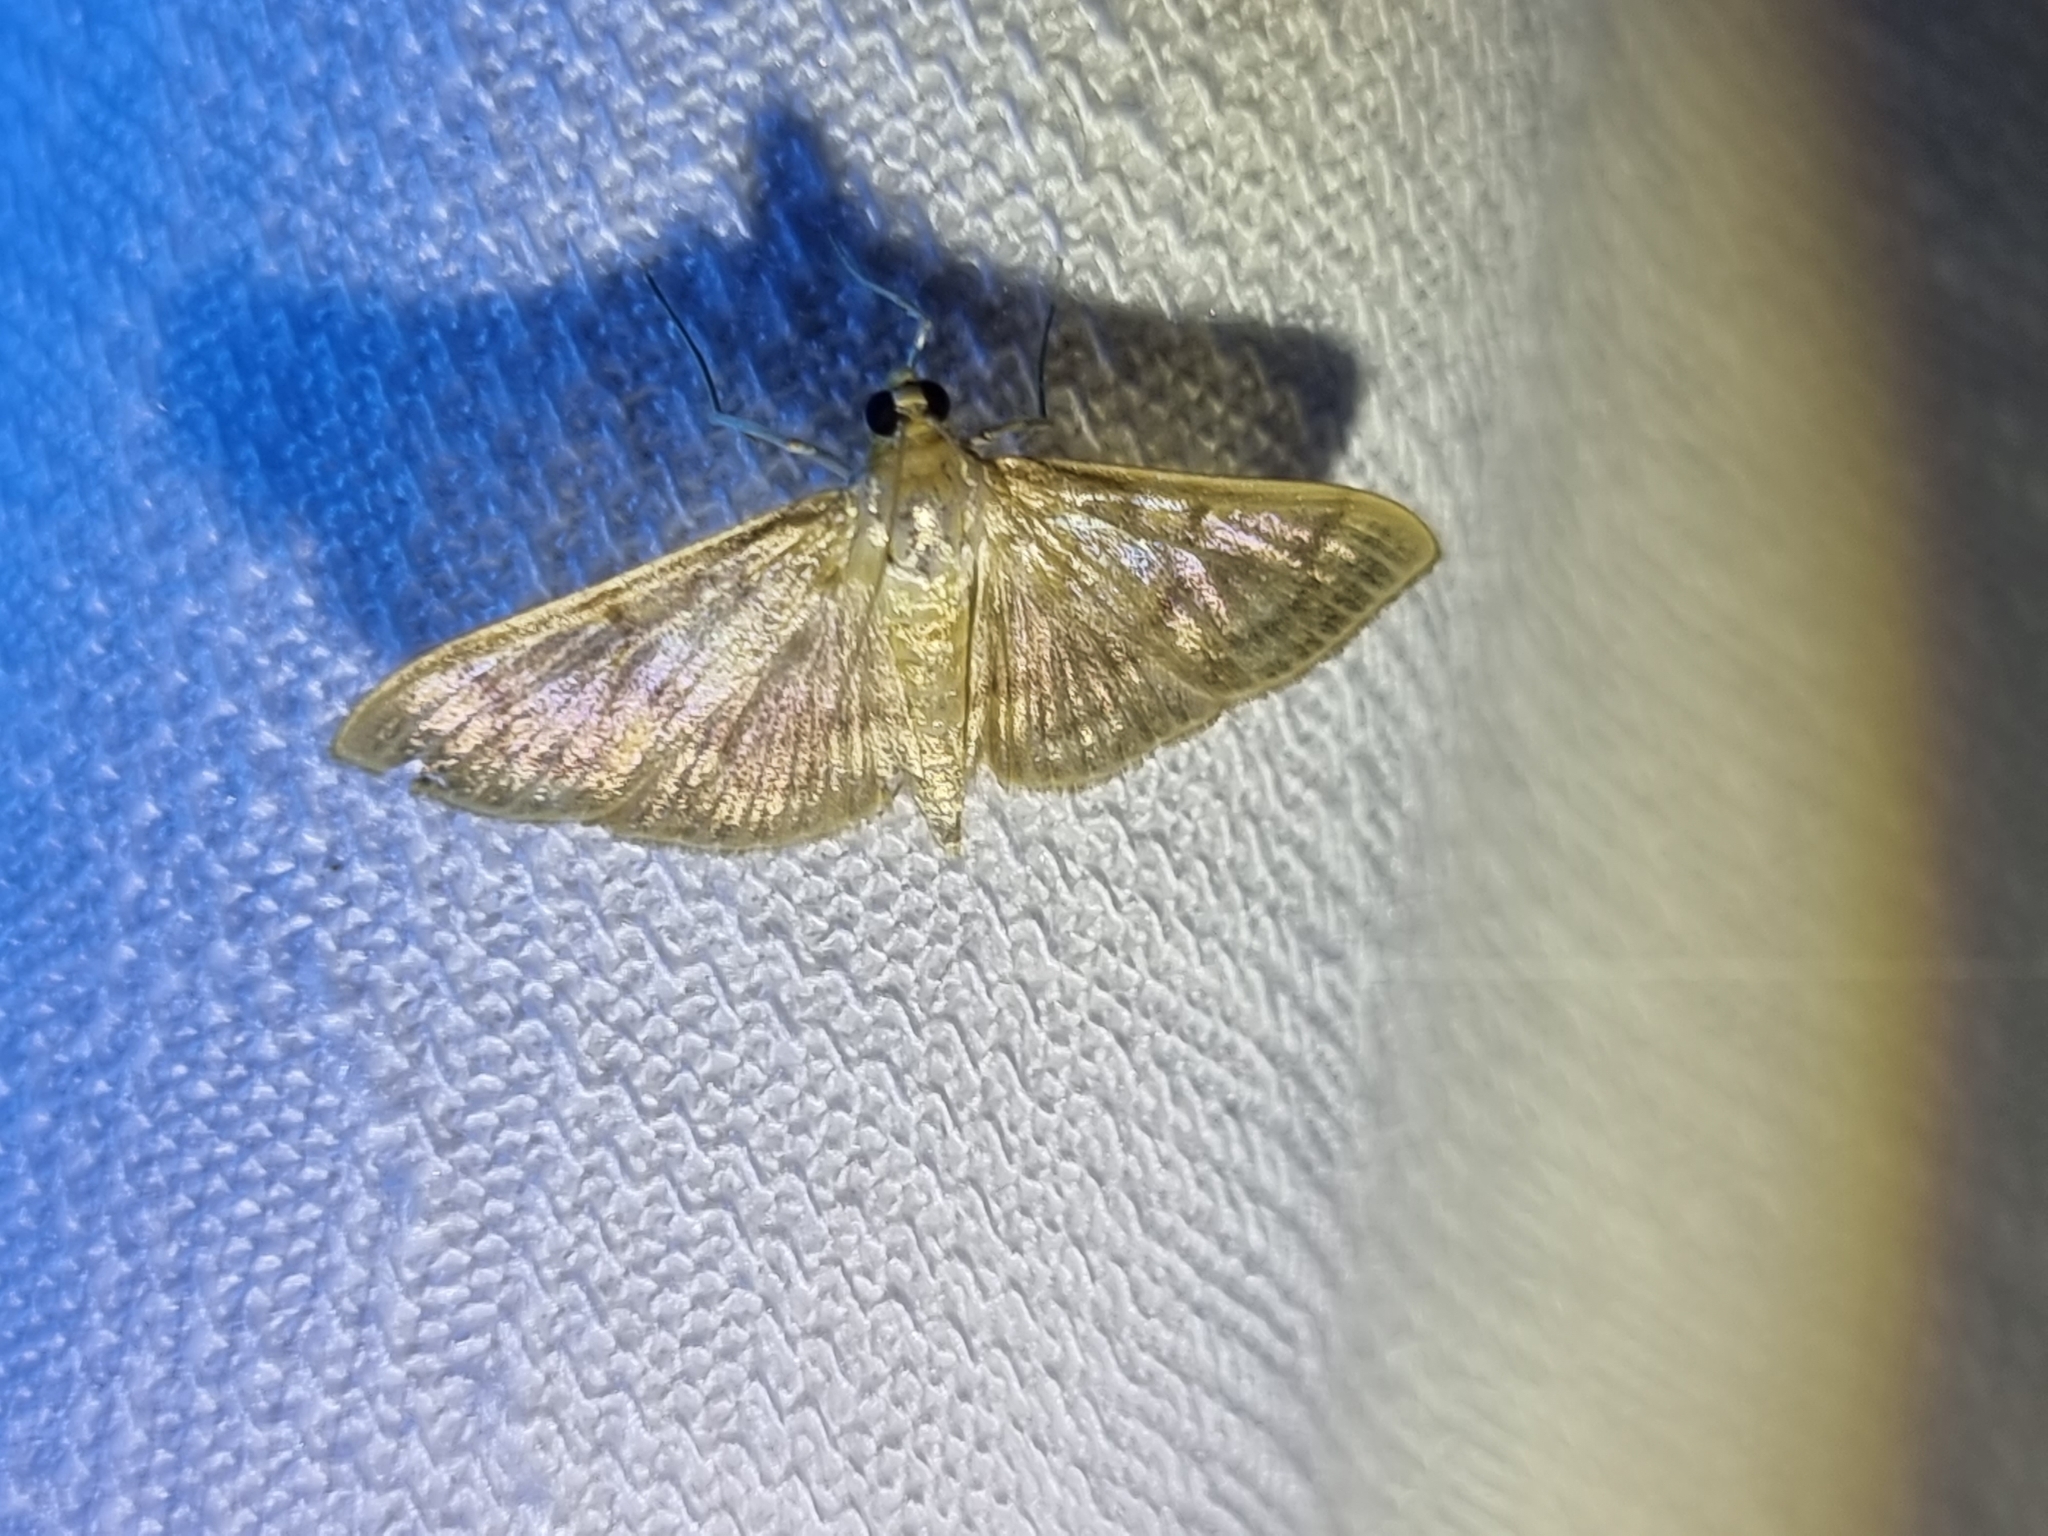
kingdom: Animalia
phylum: Arthropoda
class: Insecta
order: Lepidoptera
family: Crambidae
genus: Patania
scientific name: Patania sabinusalis
